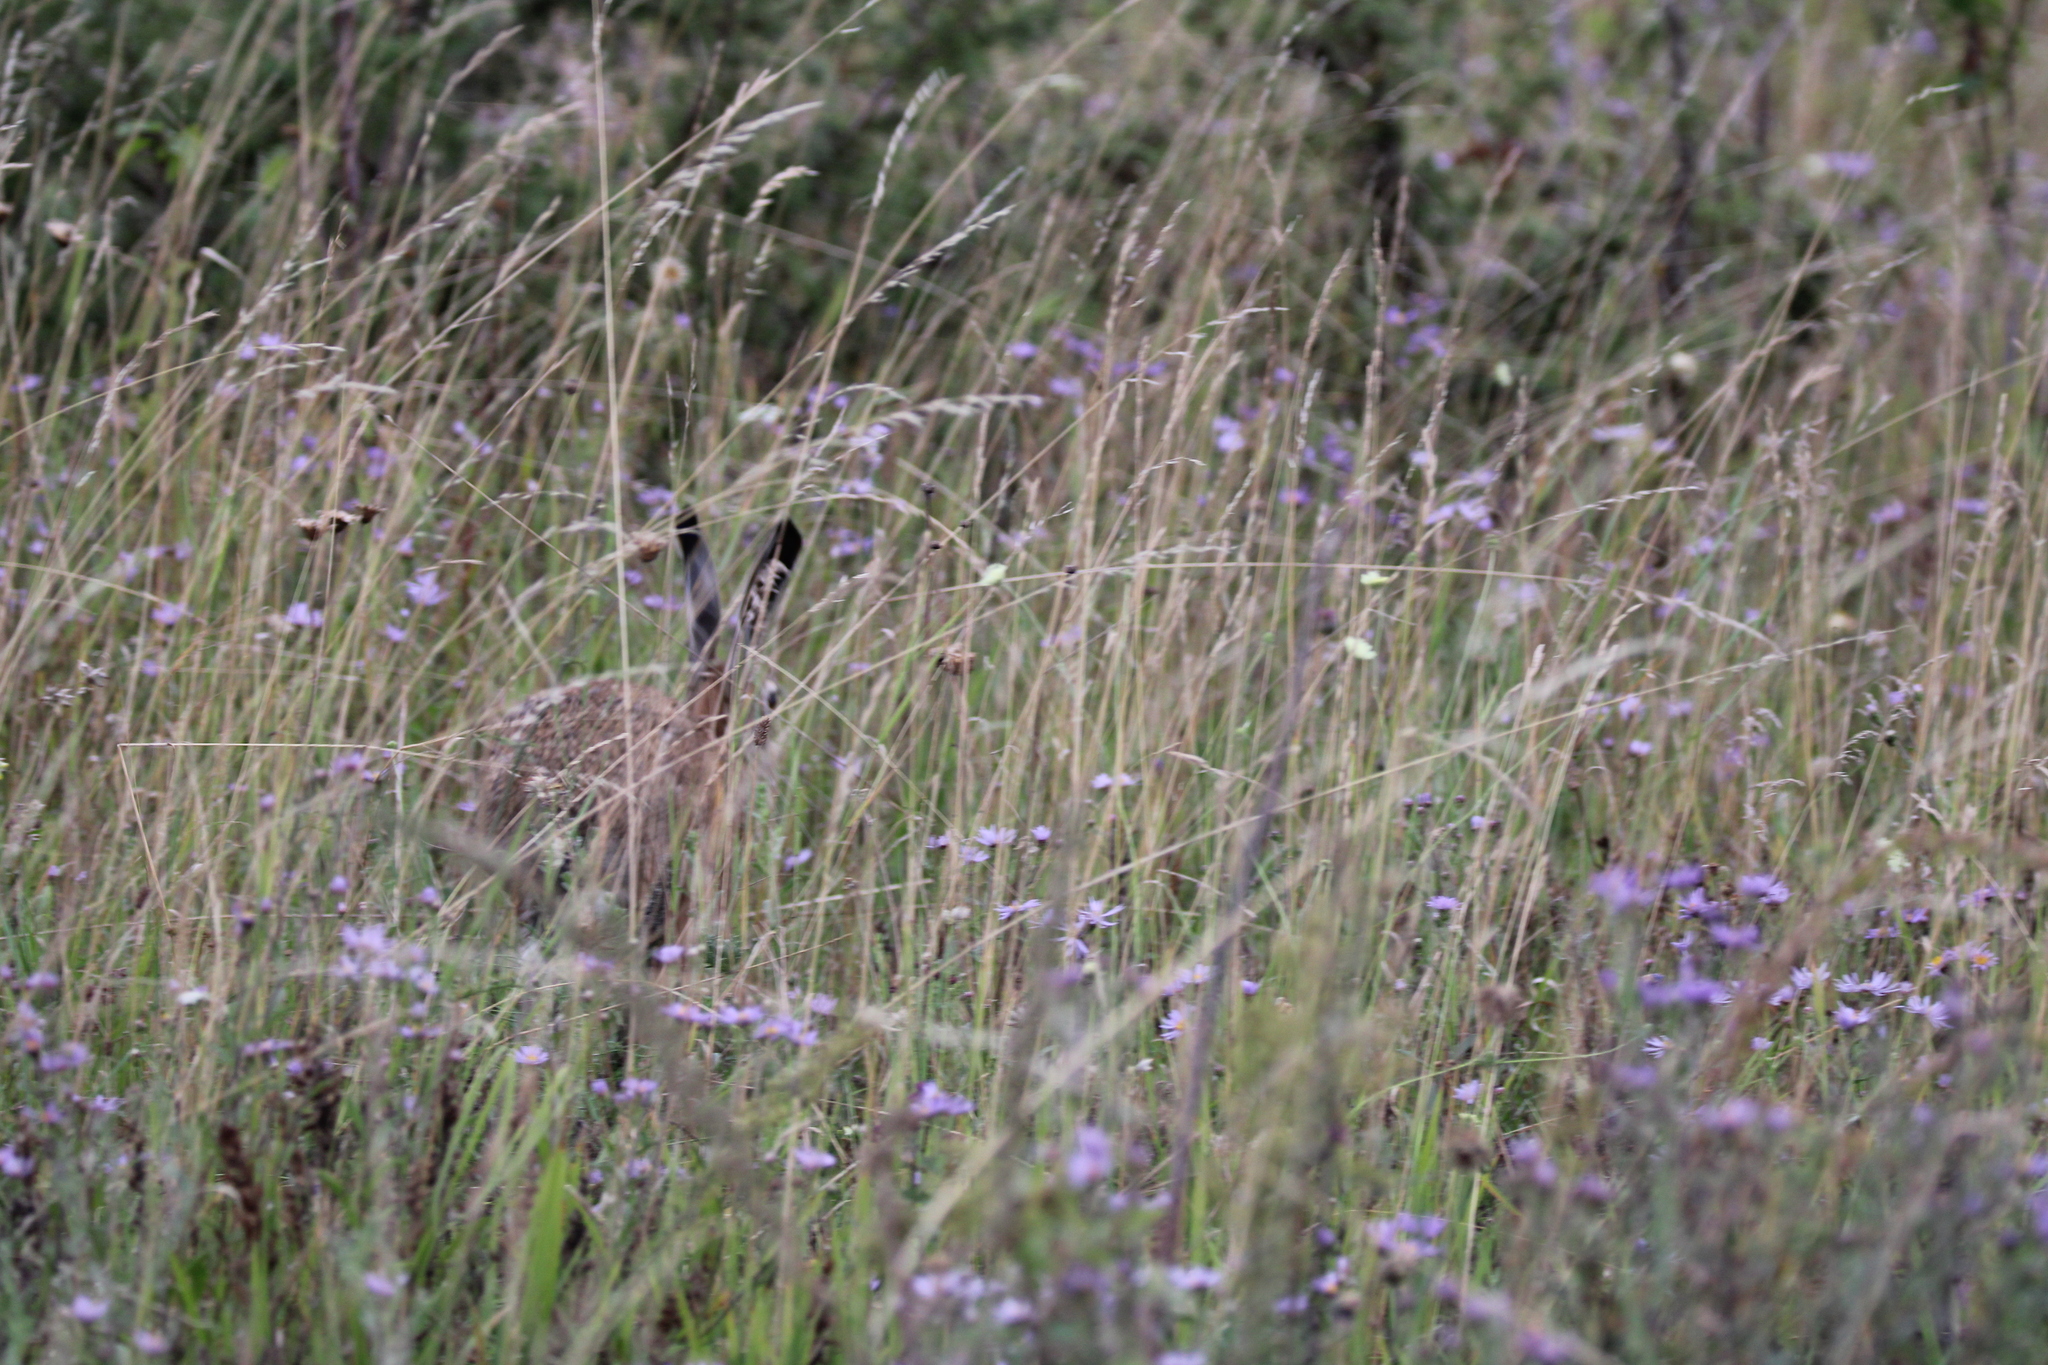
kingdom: Animalia
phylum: Chordata
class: Mammalia
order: Lagomorpha
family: Leporidae
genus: Lepus
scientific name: Lepus europaeus
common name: European hare
